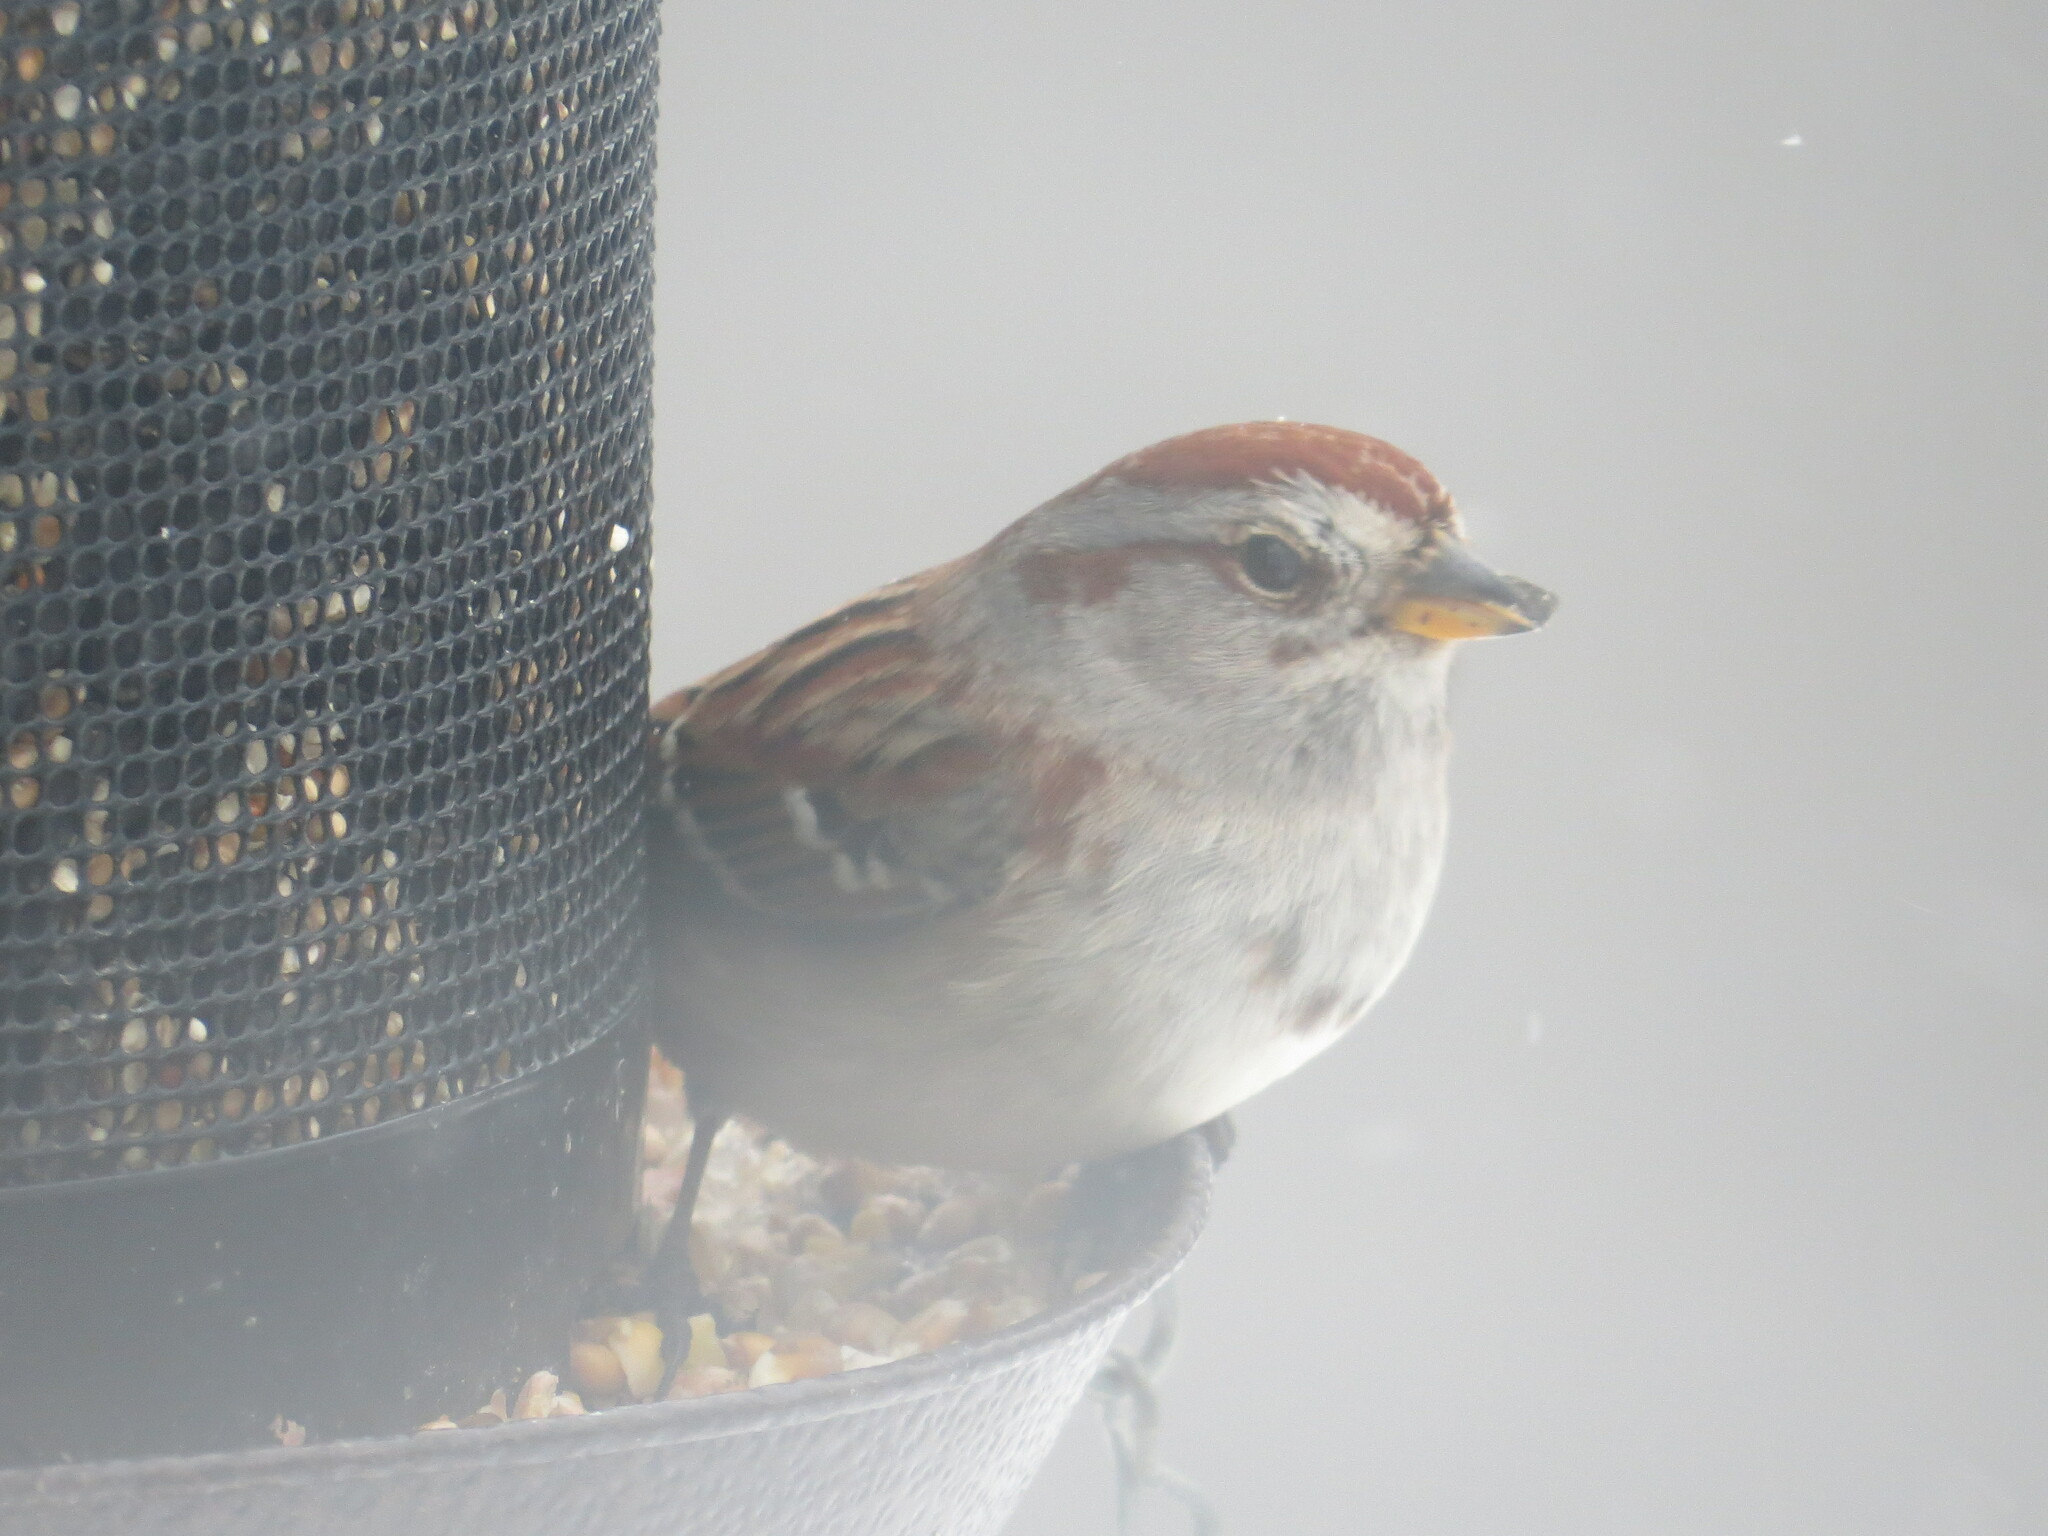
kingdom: Animalia
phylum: Chordata
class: Aves
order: Passeriformes
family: Passerellidae
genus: Spizelloides
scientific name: Spizelloides arborea
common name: American tree sparrow
